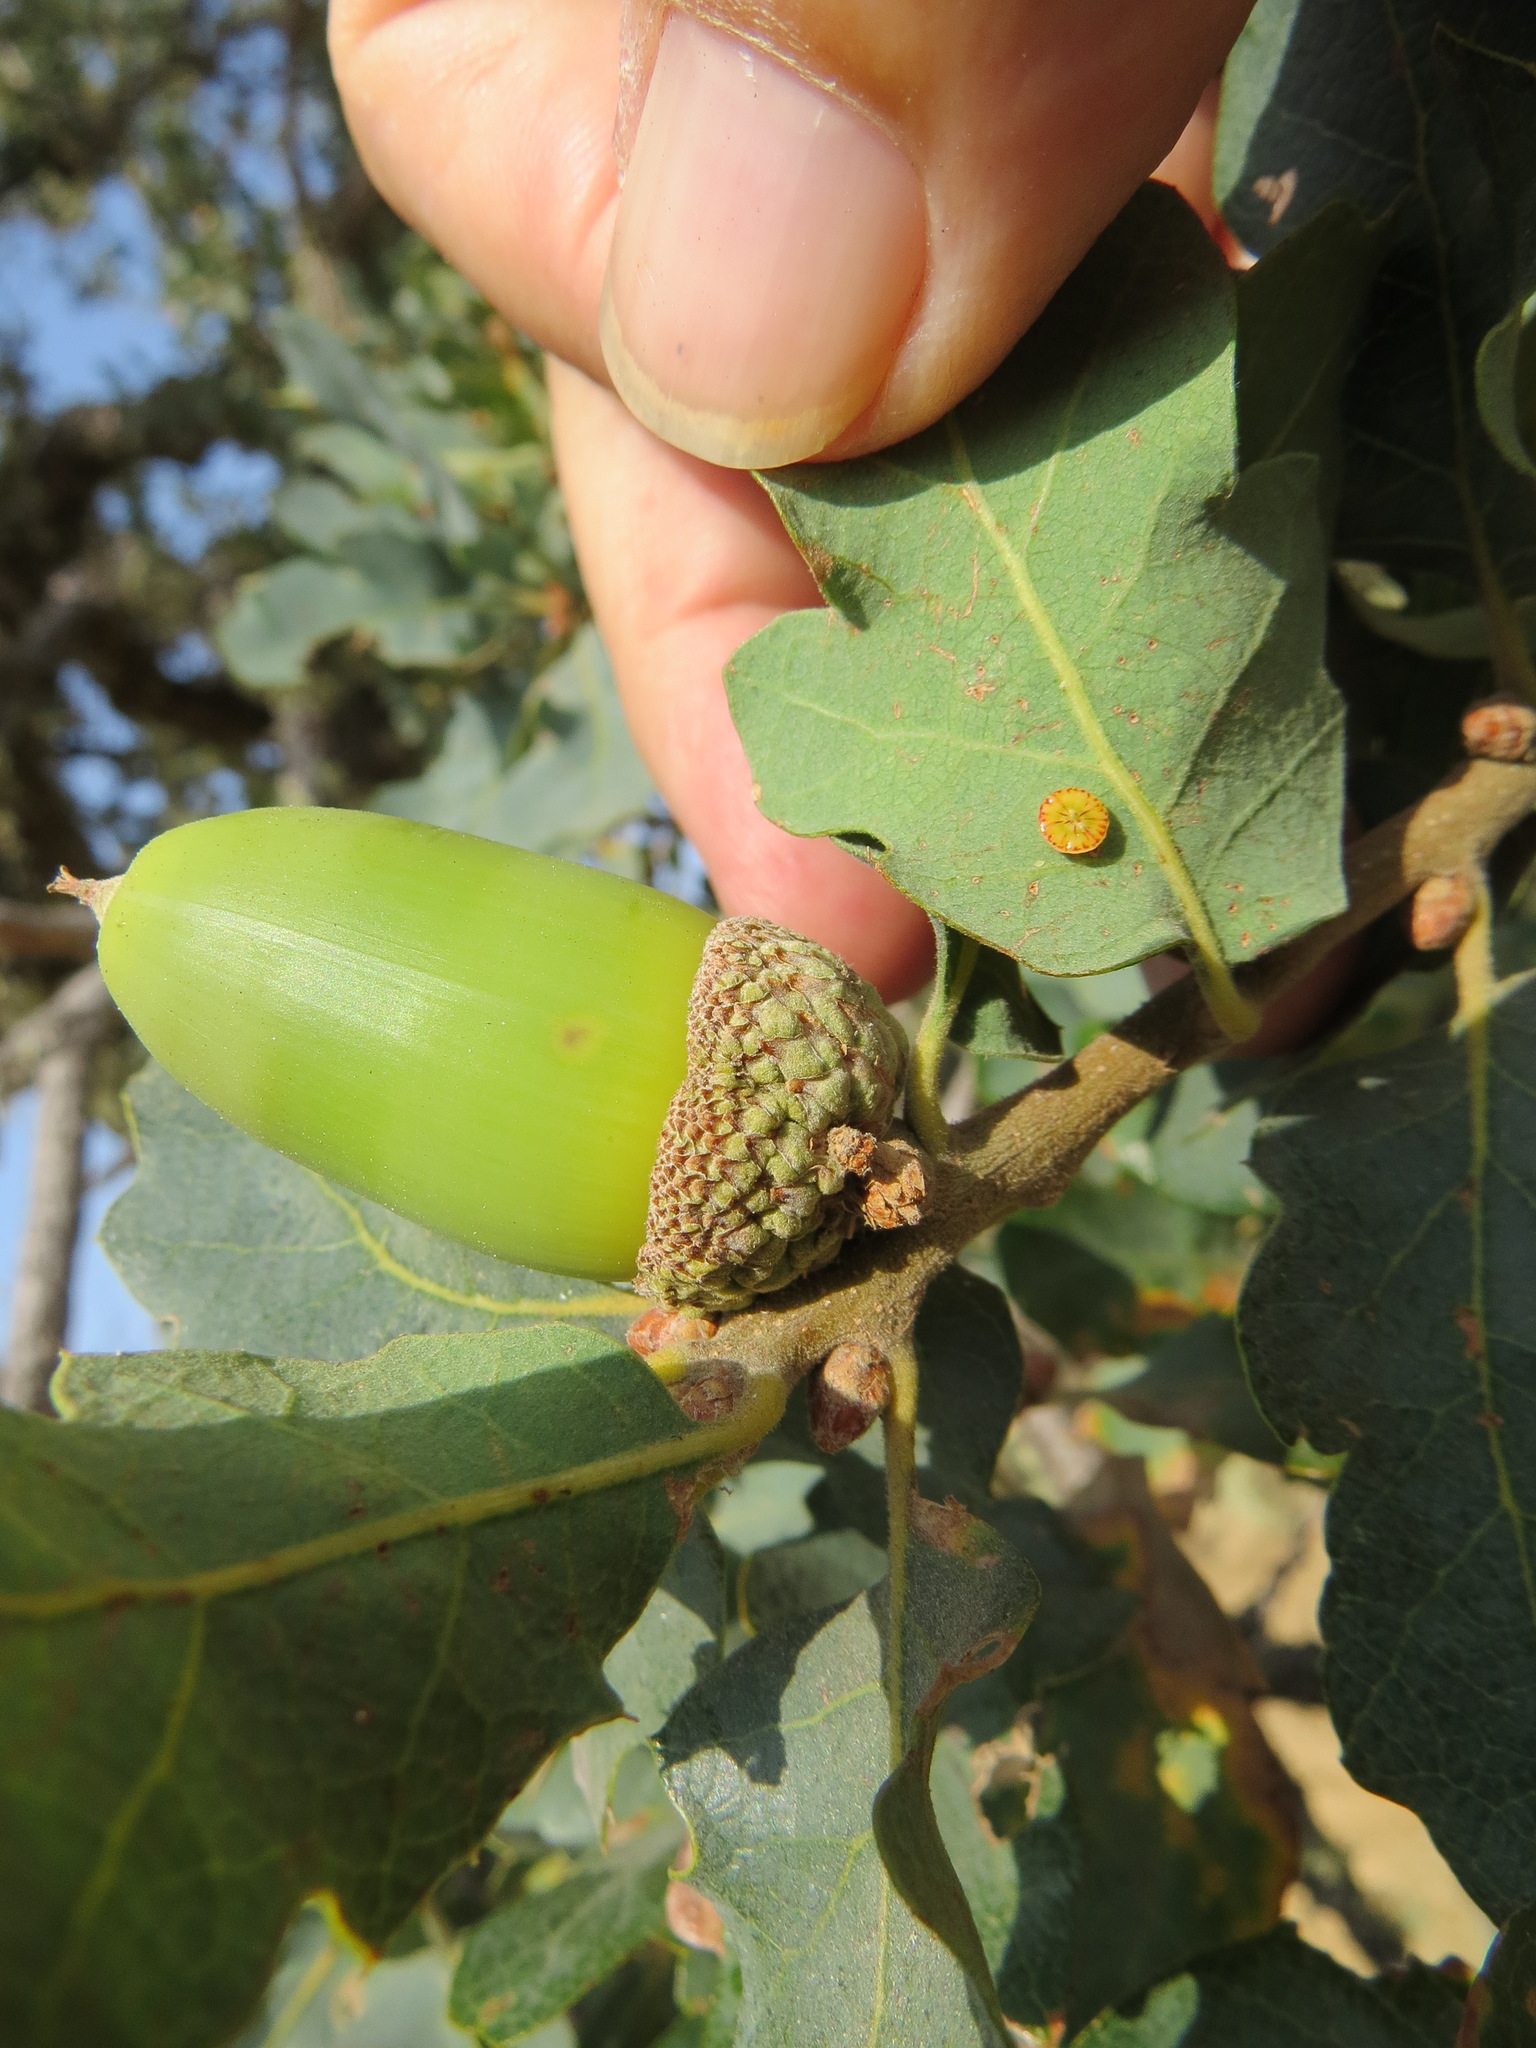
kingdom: Animalia
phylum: Arthropoda
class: Insecta
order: Hymenoptera
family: Cynipidae
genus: Andricus
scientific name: Andricus
